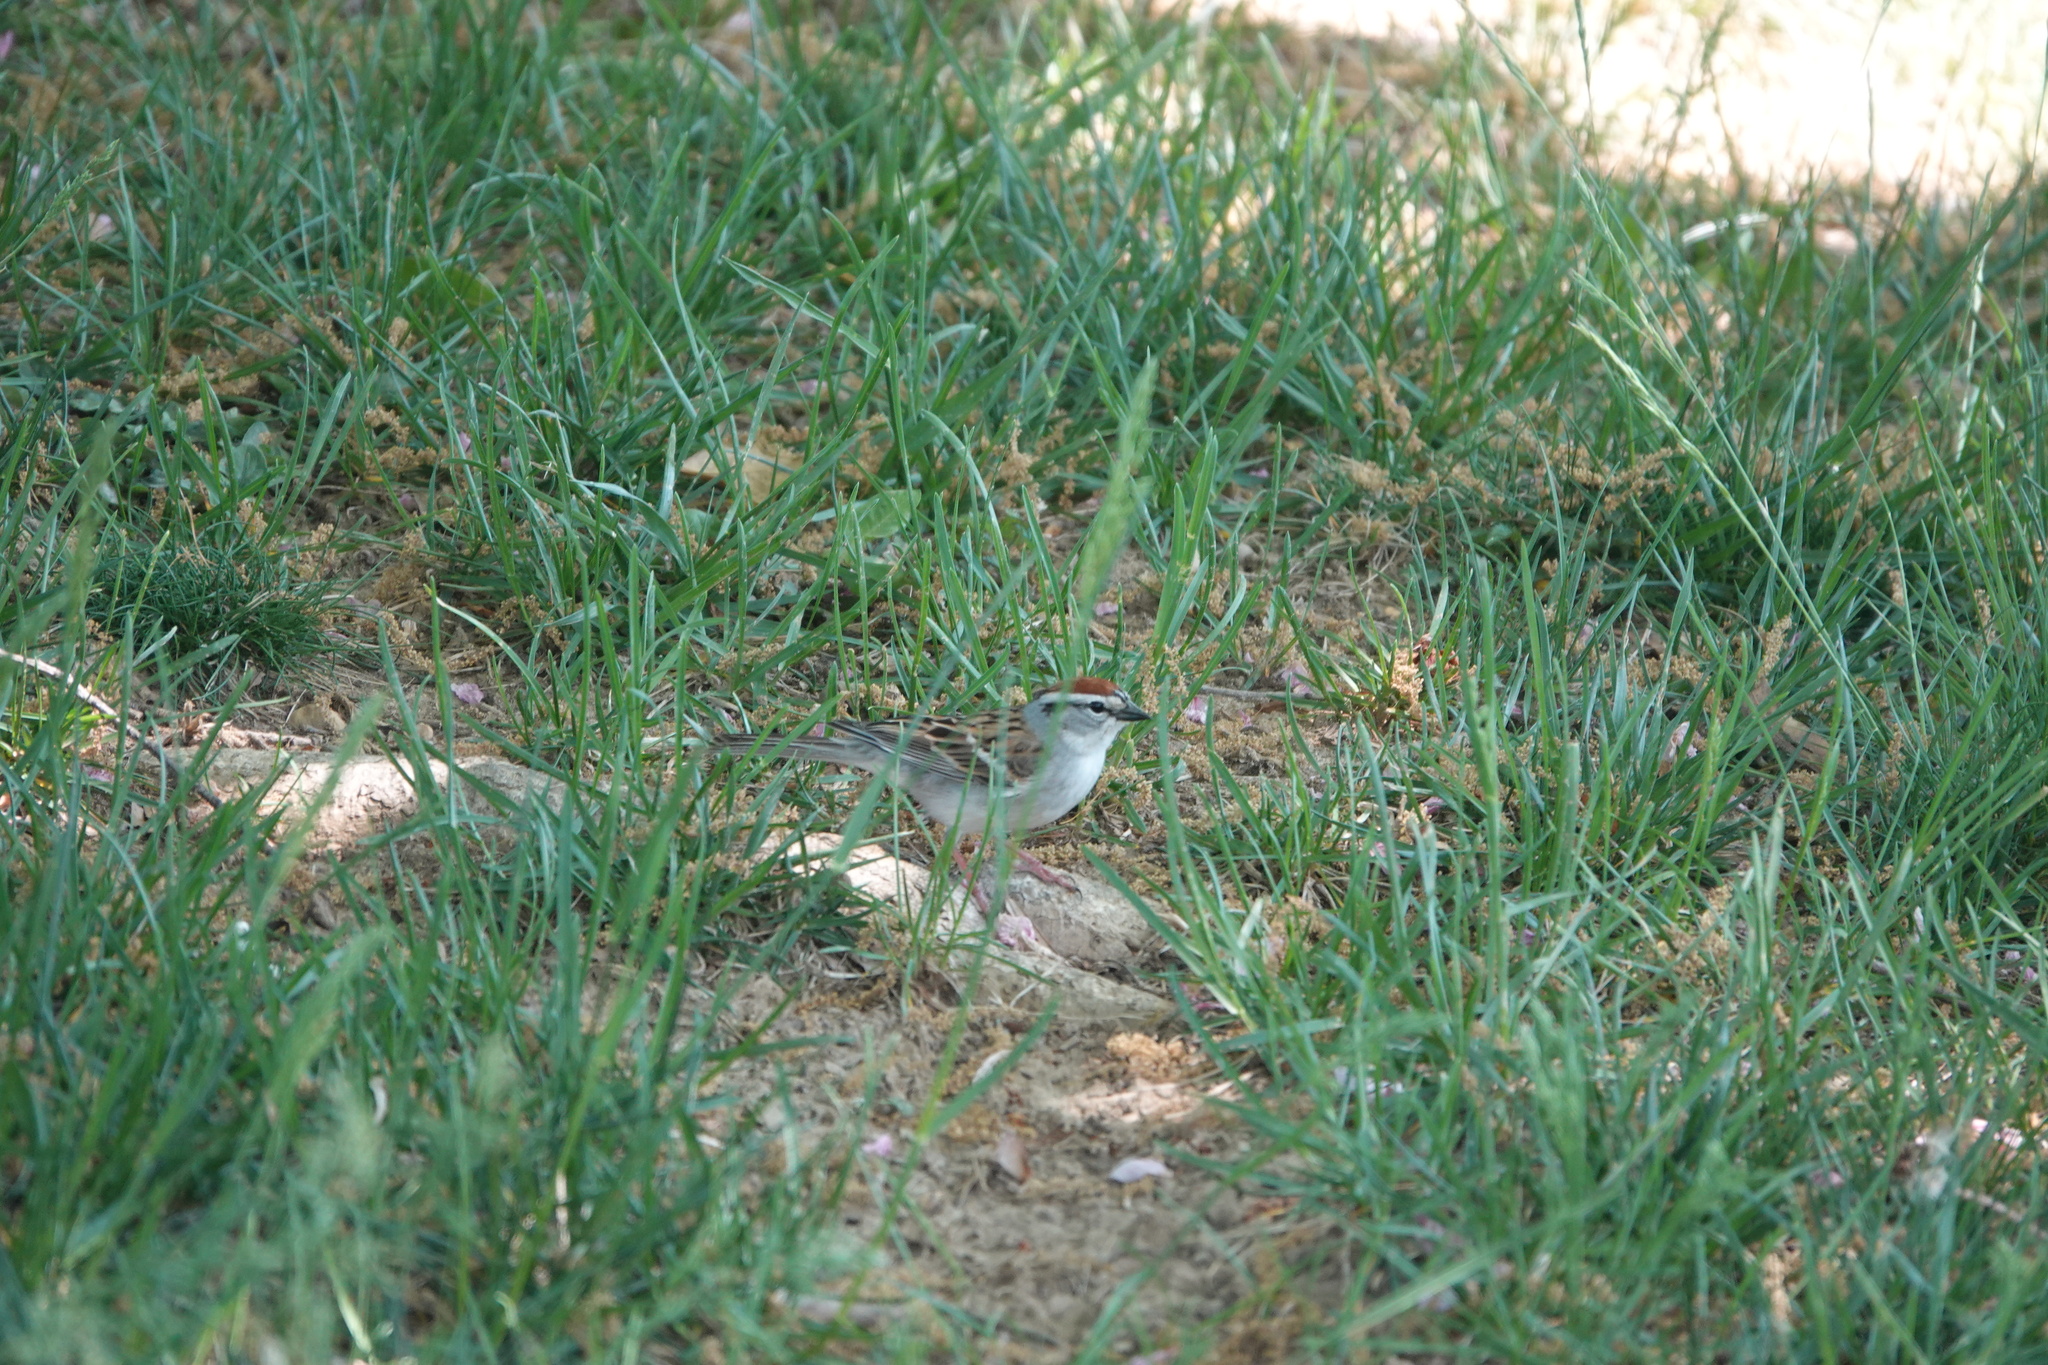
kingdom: Animalia
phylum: Chordata
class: Aves
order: Passeriformes
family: Passerellidae
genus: Spizella
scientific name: Spizella passerina
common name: Chipping sparrow
